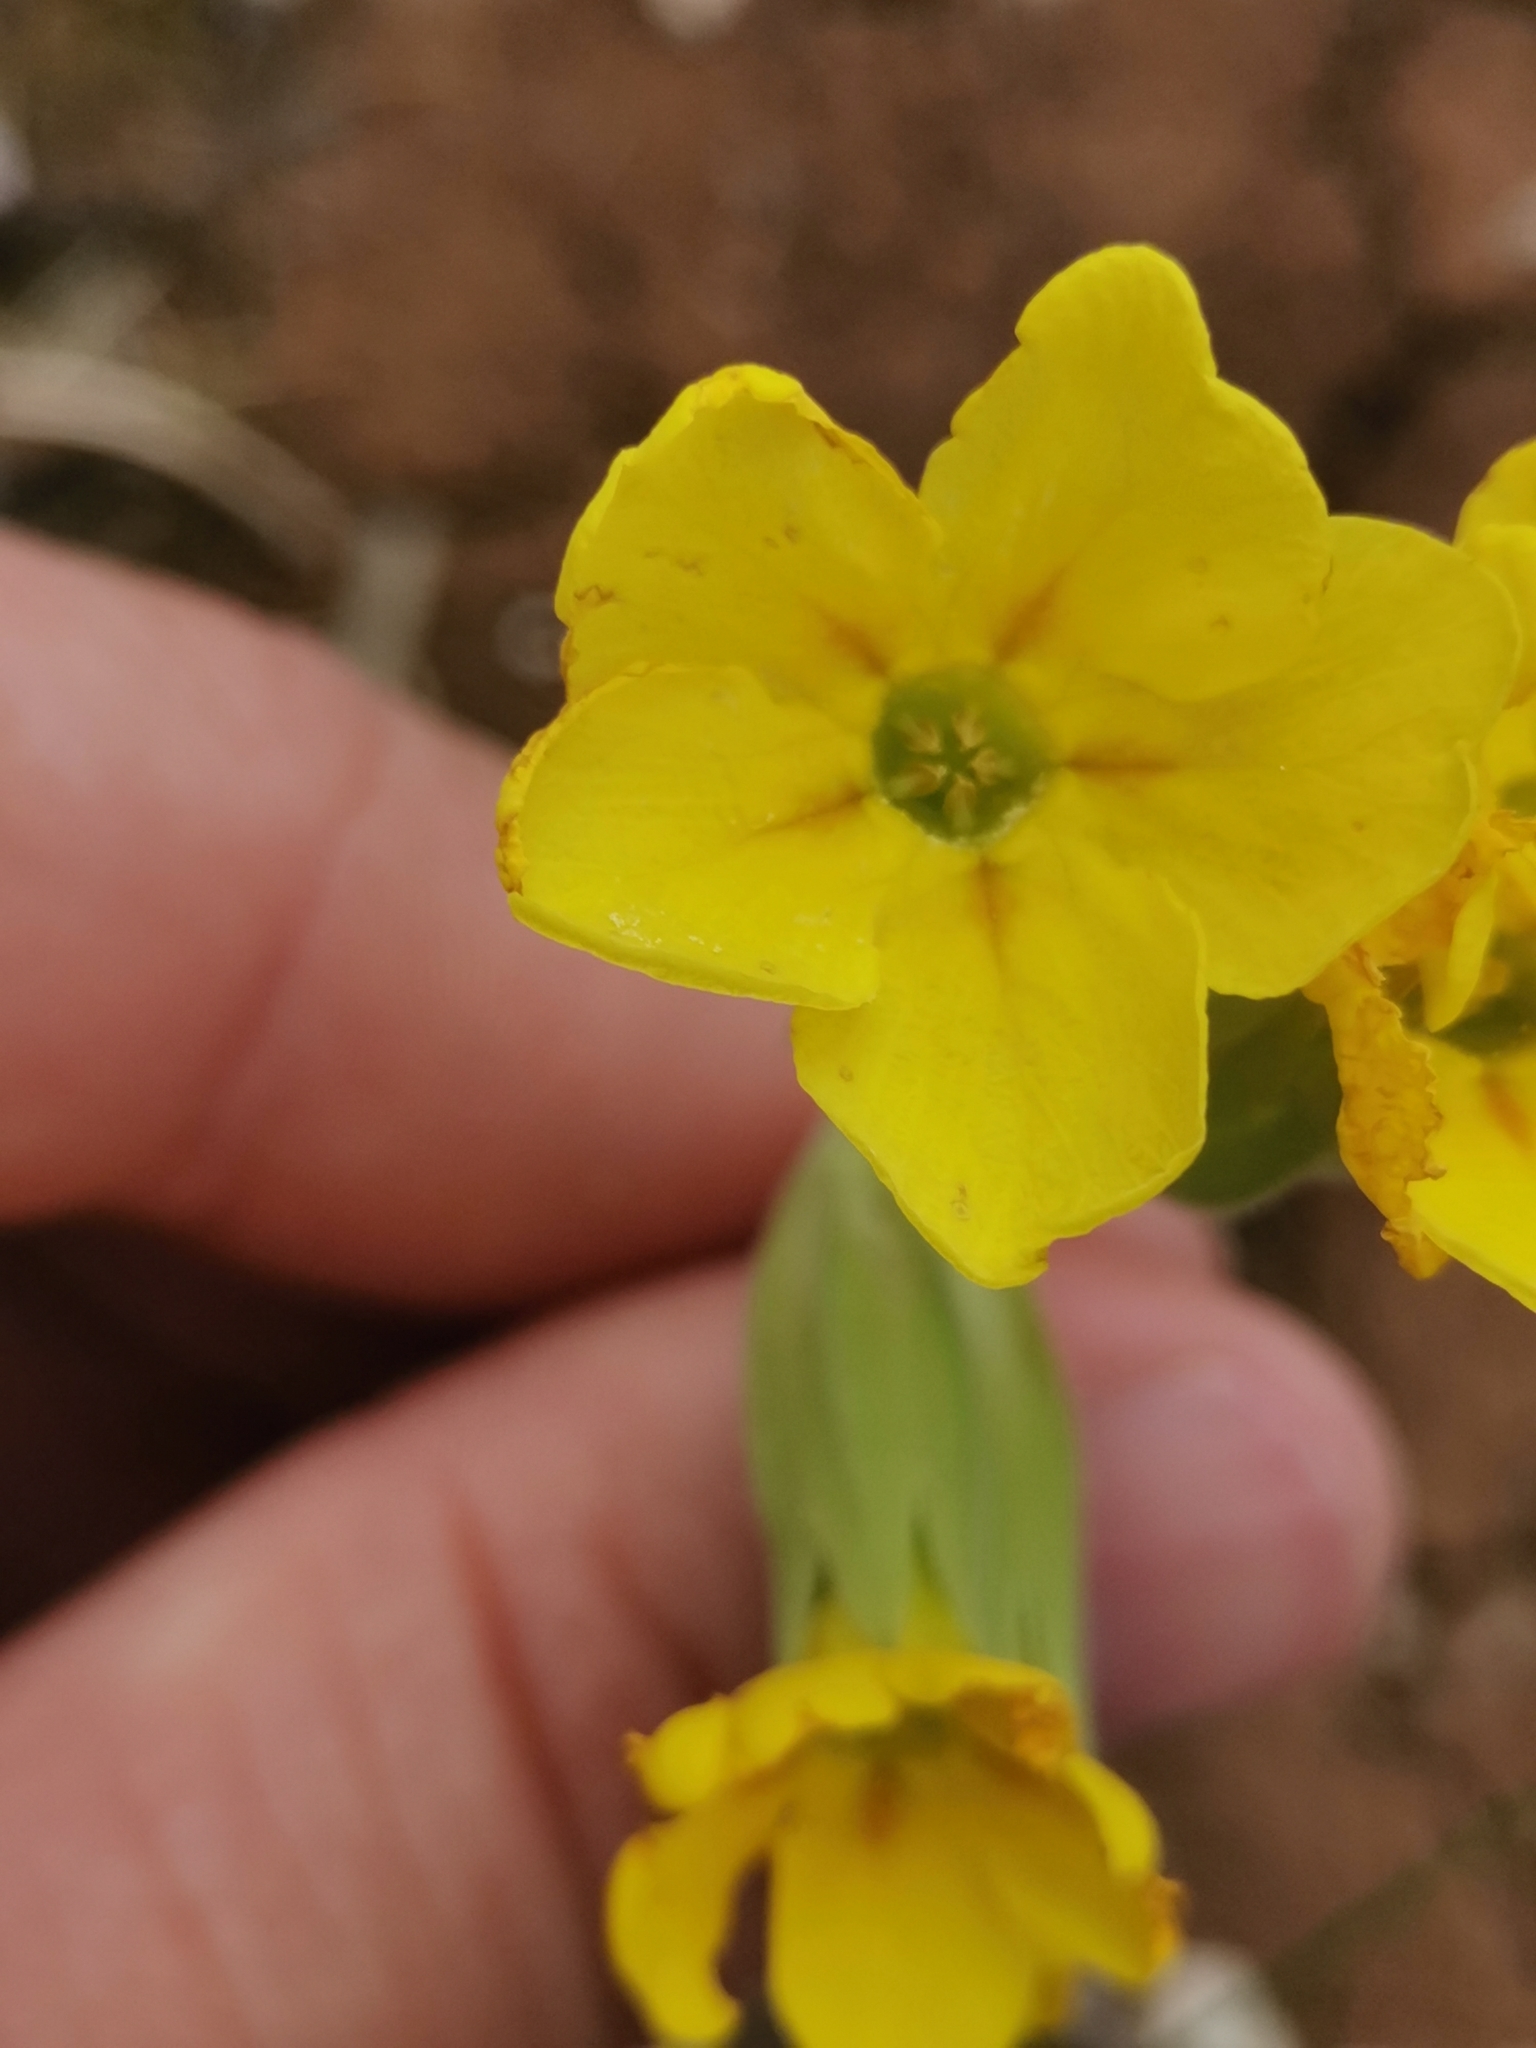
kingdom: Plantae
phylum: Tracheophyta
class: Magnoliopsida
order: Ericales
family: Primulaceae
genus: Primula
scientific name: Primula veris
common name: Cowslip
